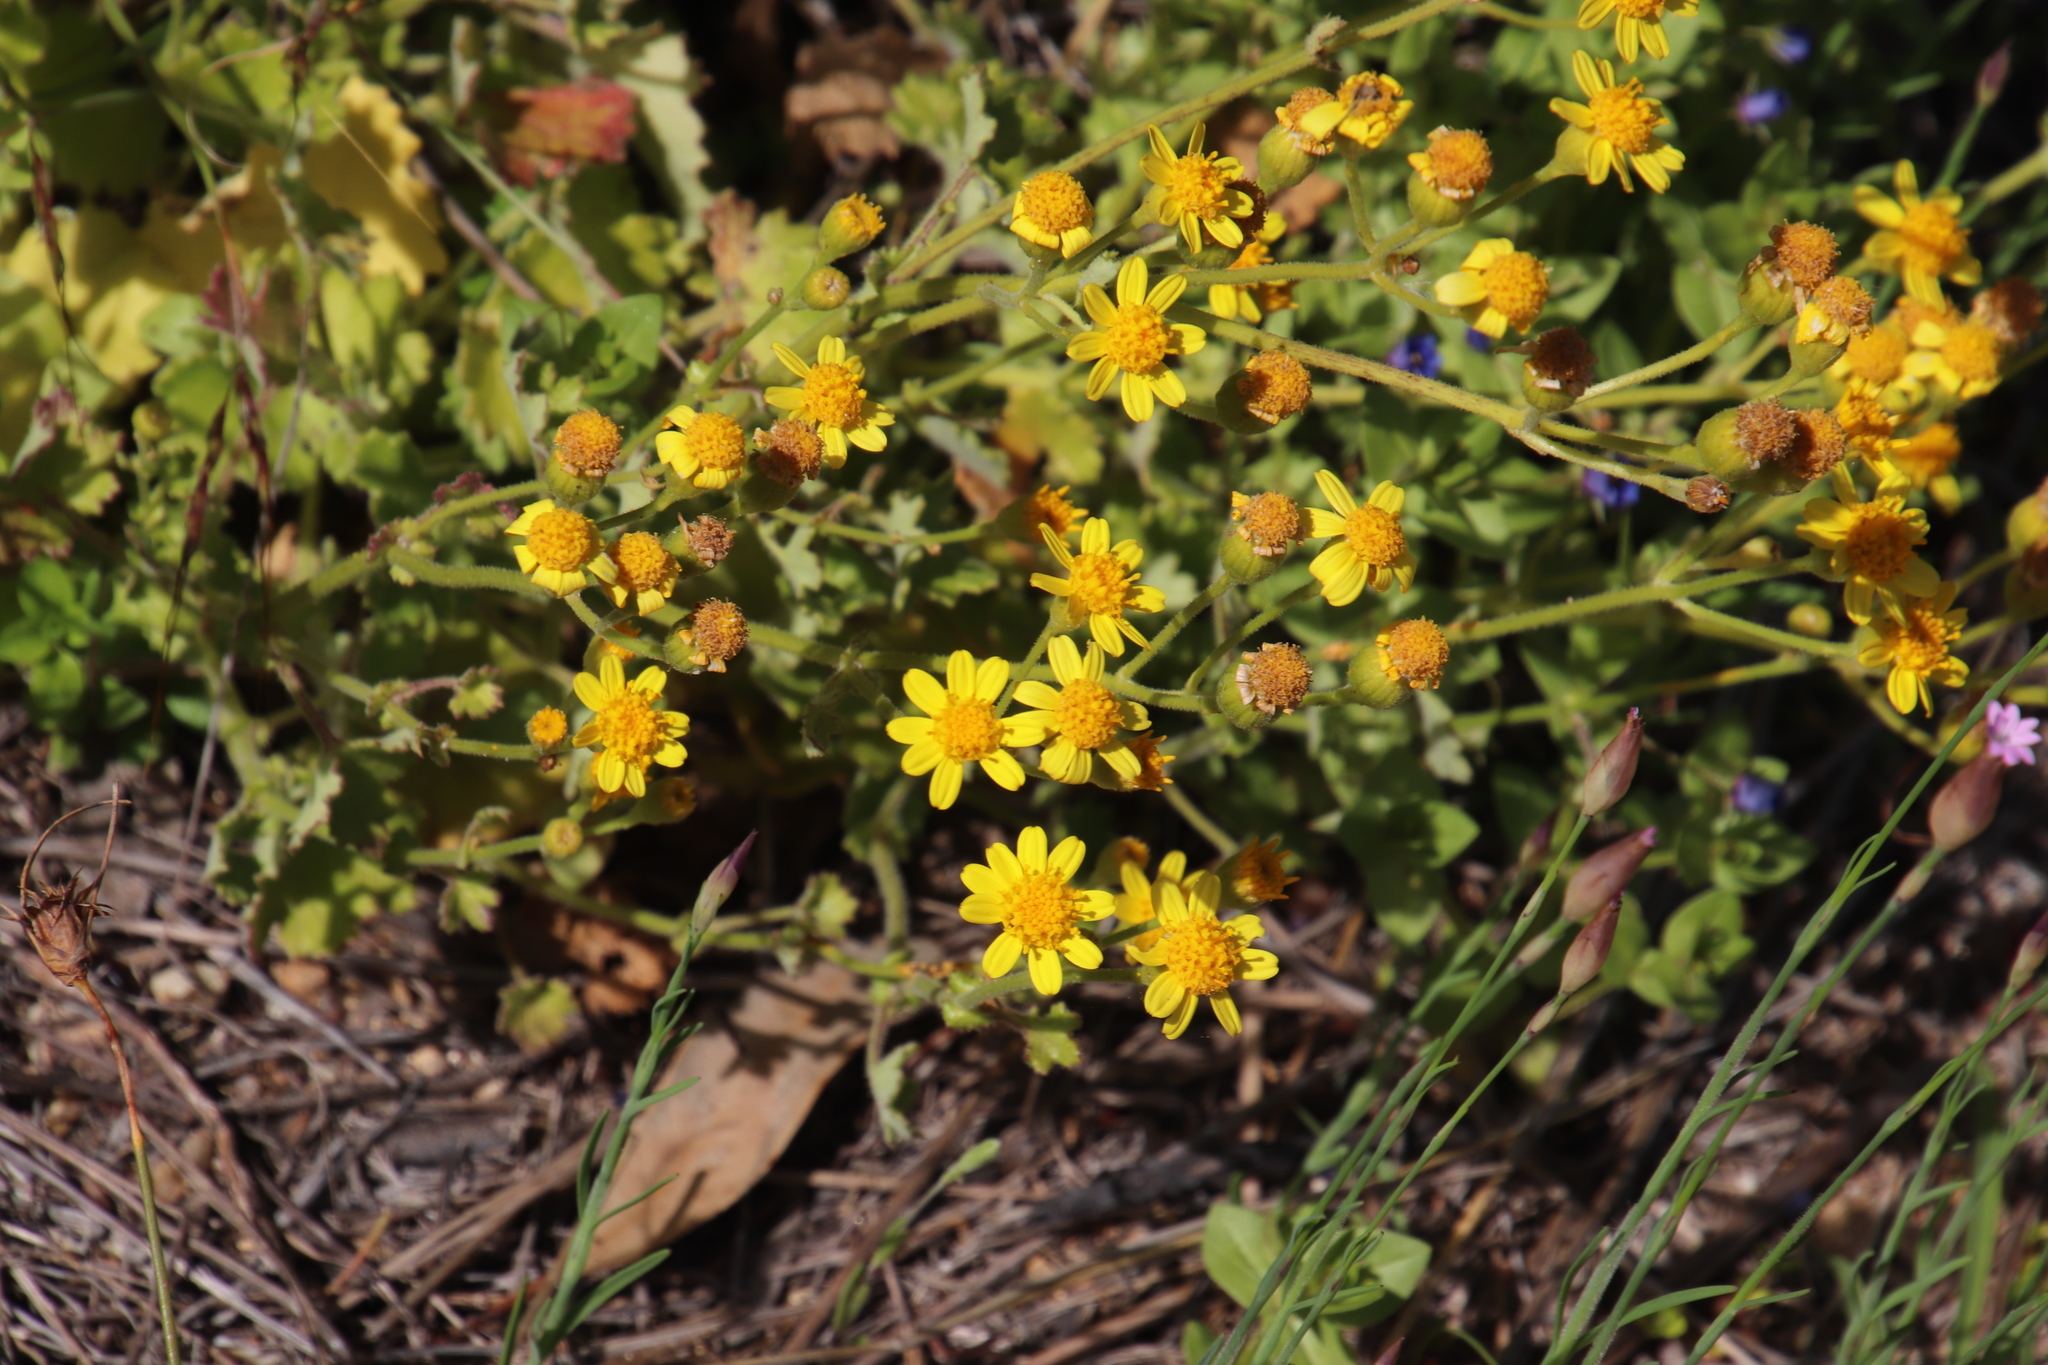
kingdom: Plantae
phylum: Tracheophyta
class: Magnoliopsida
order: Asterales
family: Asteraceae
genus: Cineraria
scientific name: Cineraria geifolia
